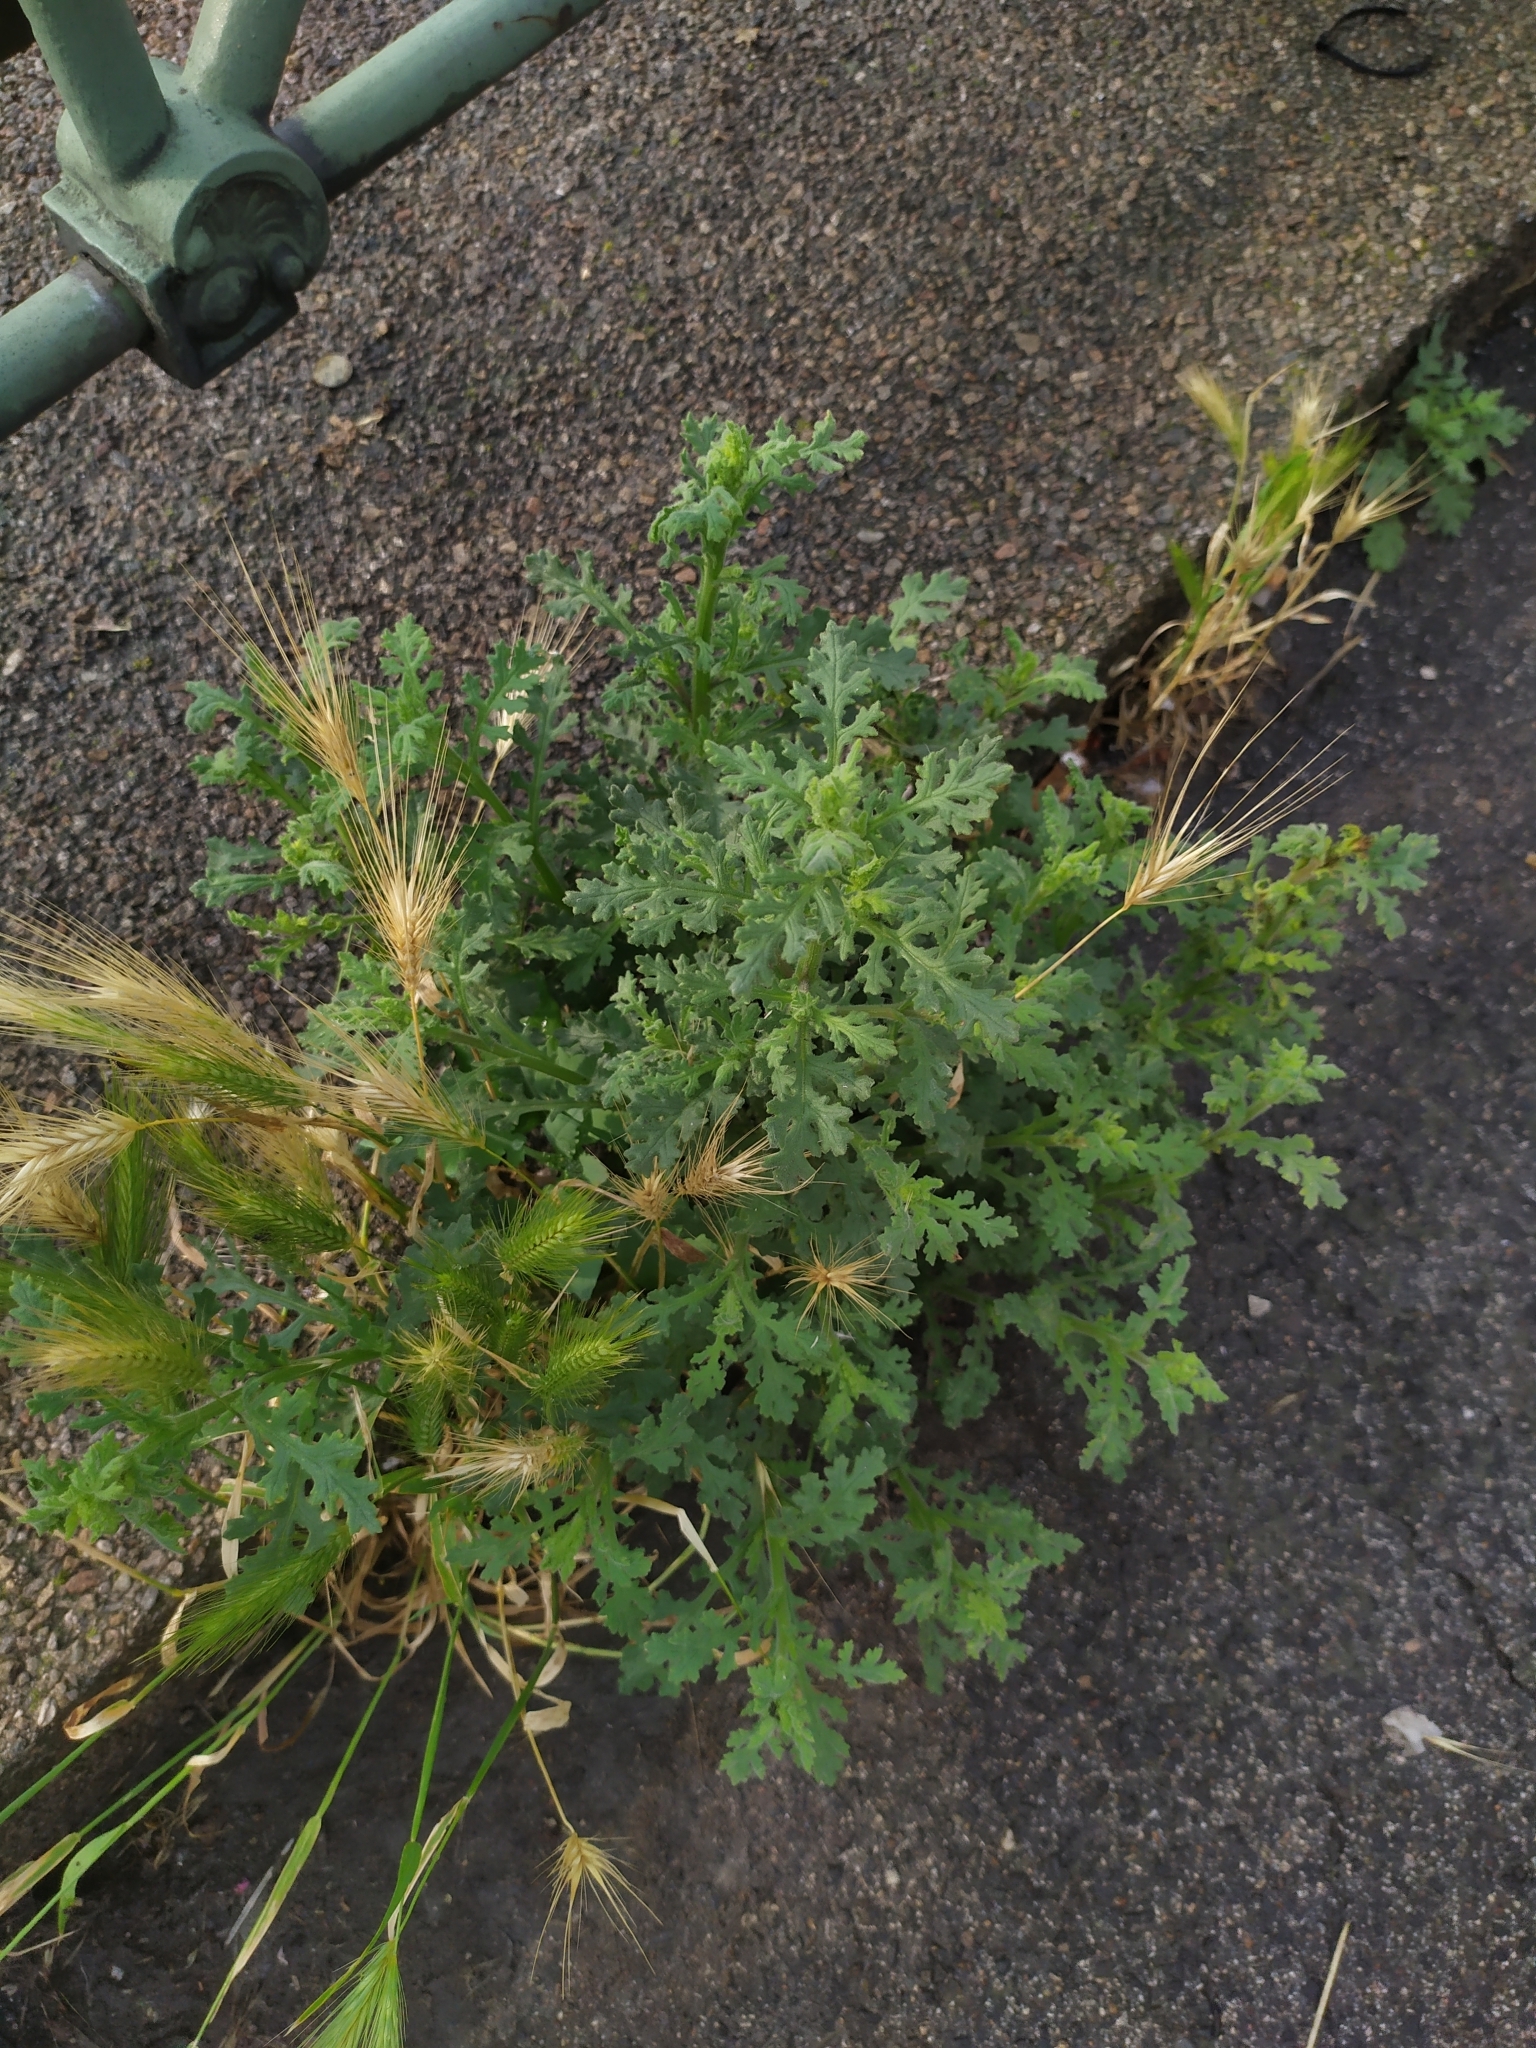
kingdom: Plantae
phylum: Tracheophyta
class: Magnoliopsida
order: Asterales
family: Asteraceae
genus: Senecio
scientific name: Senecio viscosus
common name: Sticky groundsel
